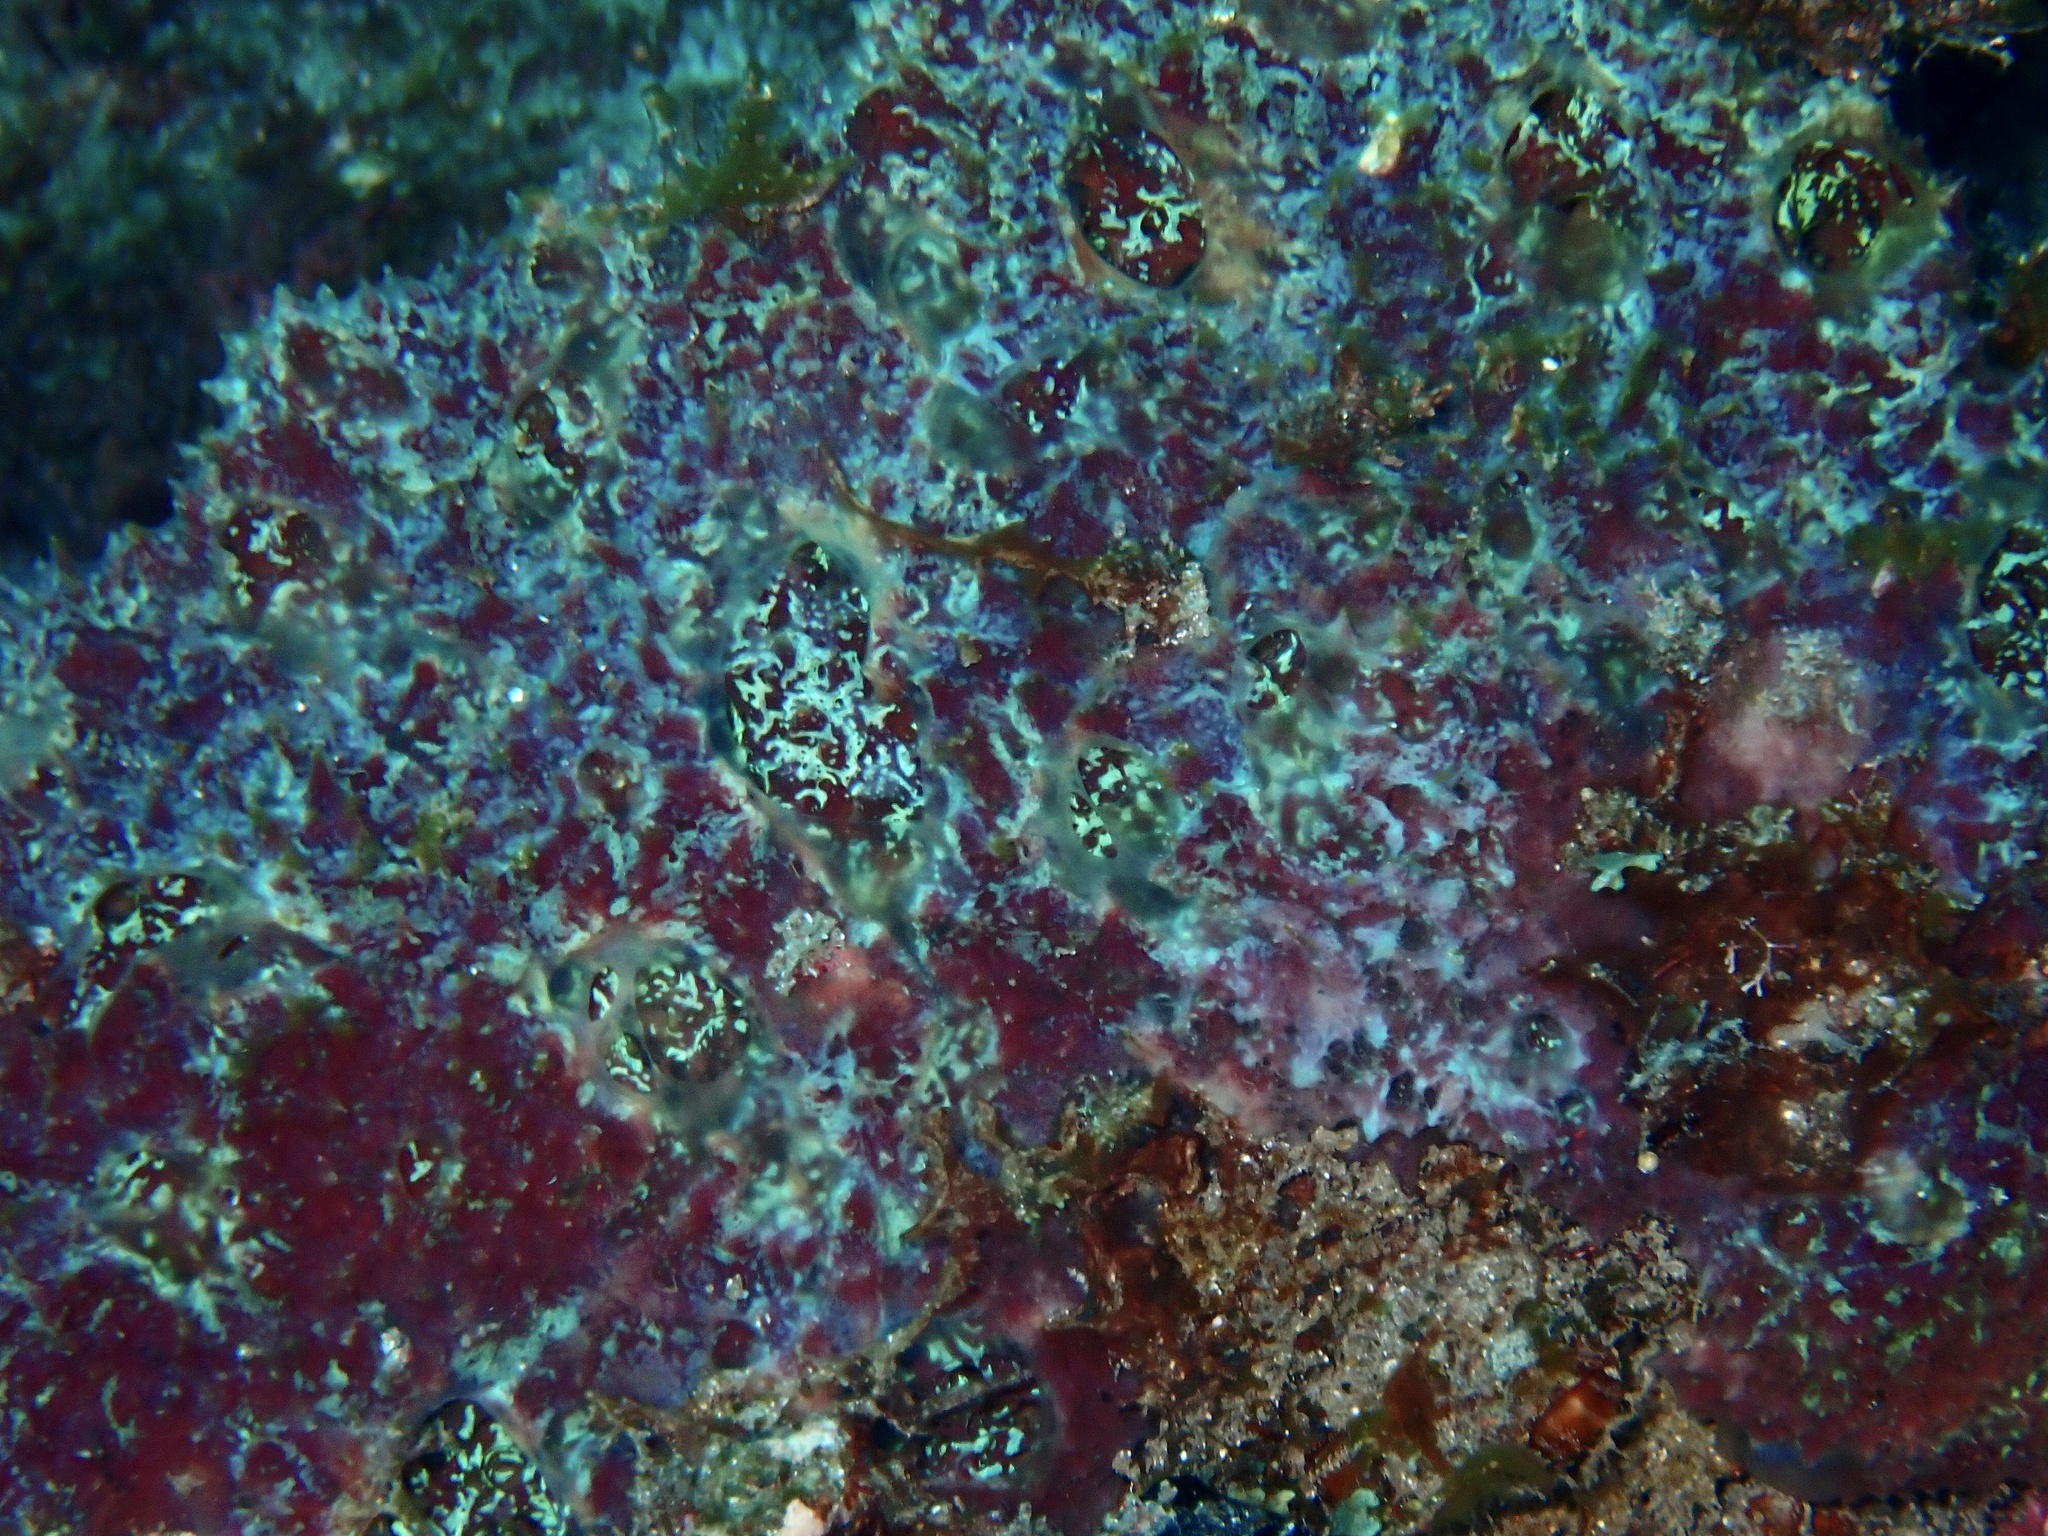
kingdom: Animalia
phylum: Porifera
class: Demospongiae
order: Poecilosclerida
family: Mycalidae
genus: Mycale
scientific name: Mycale laxissima
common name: Strawberry vase sponge
